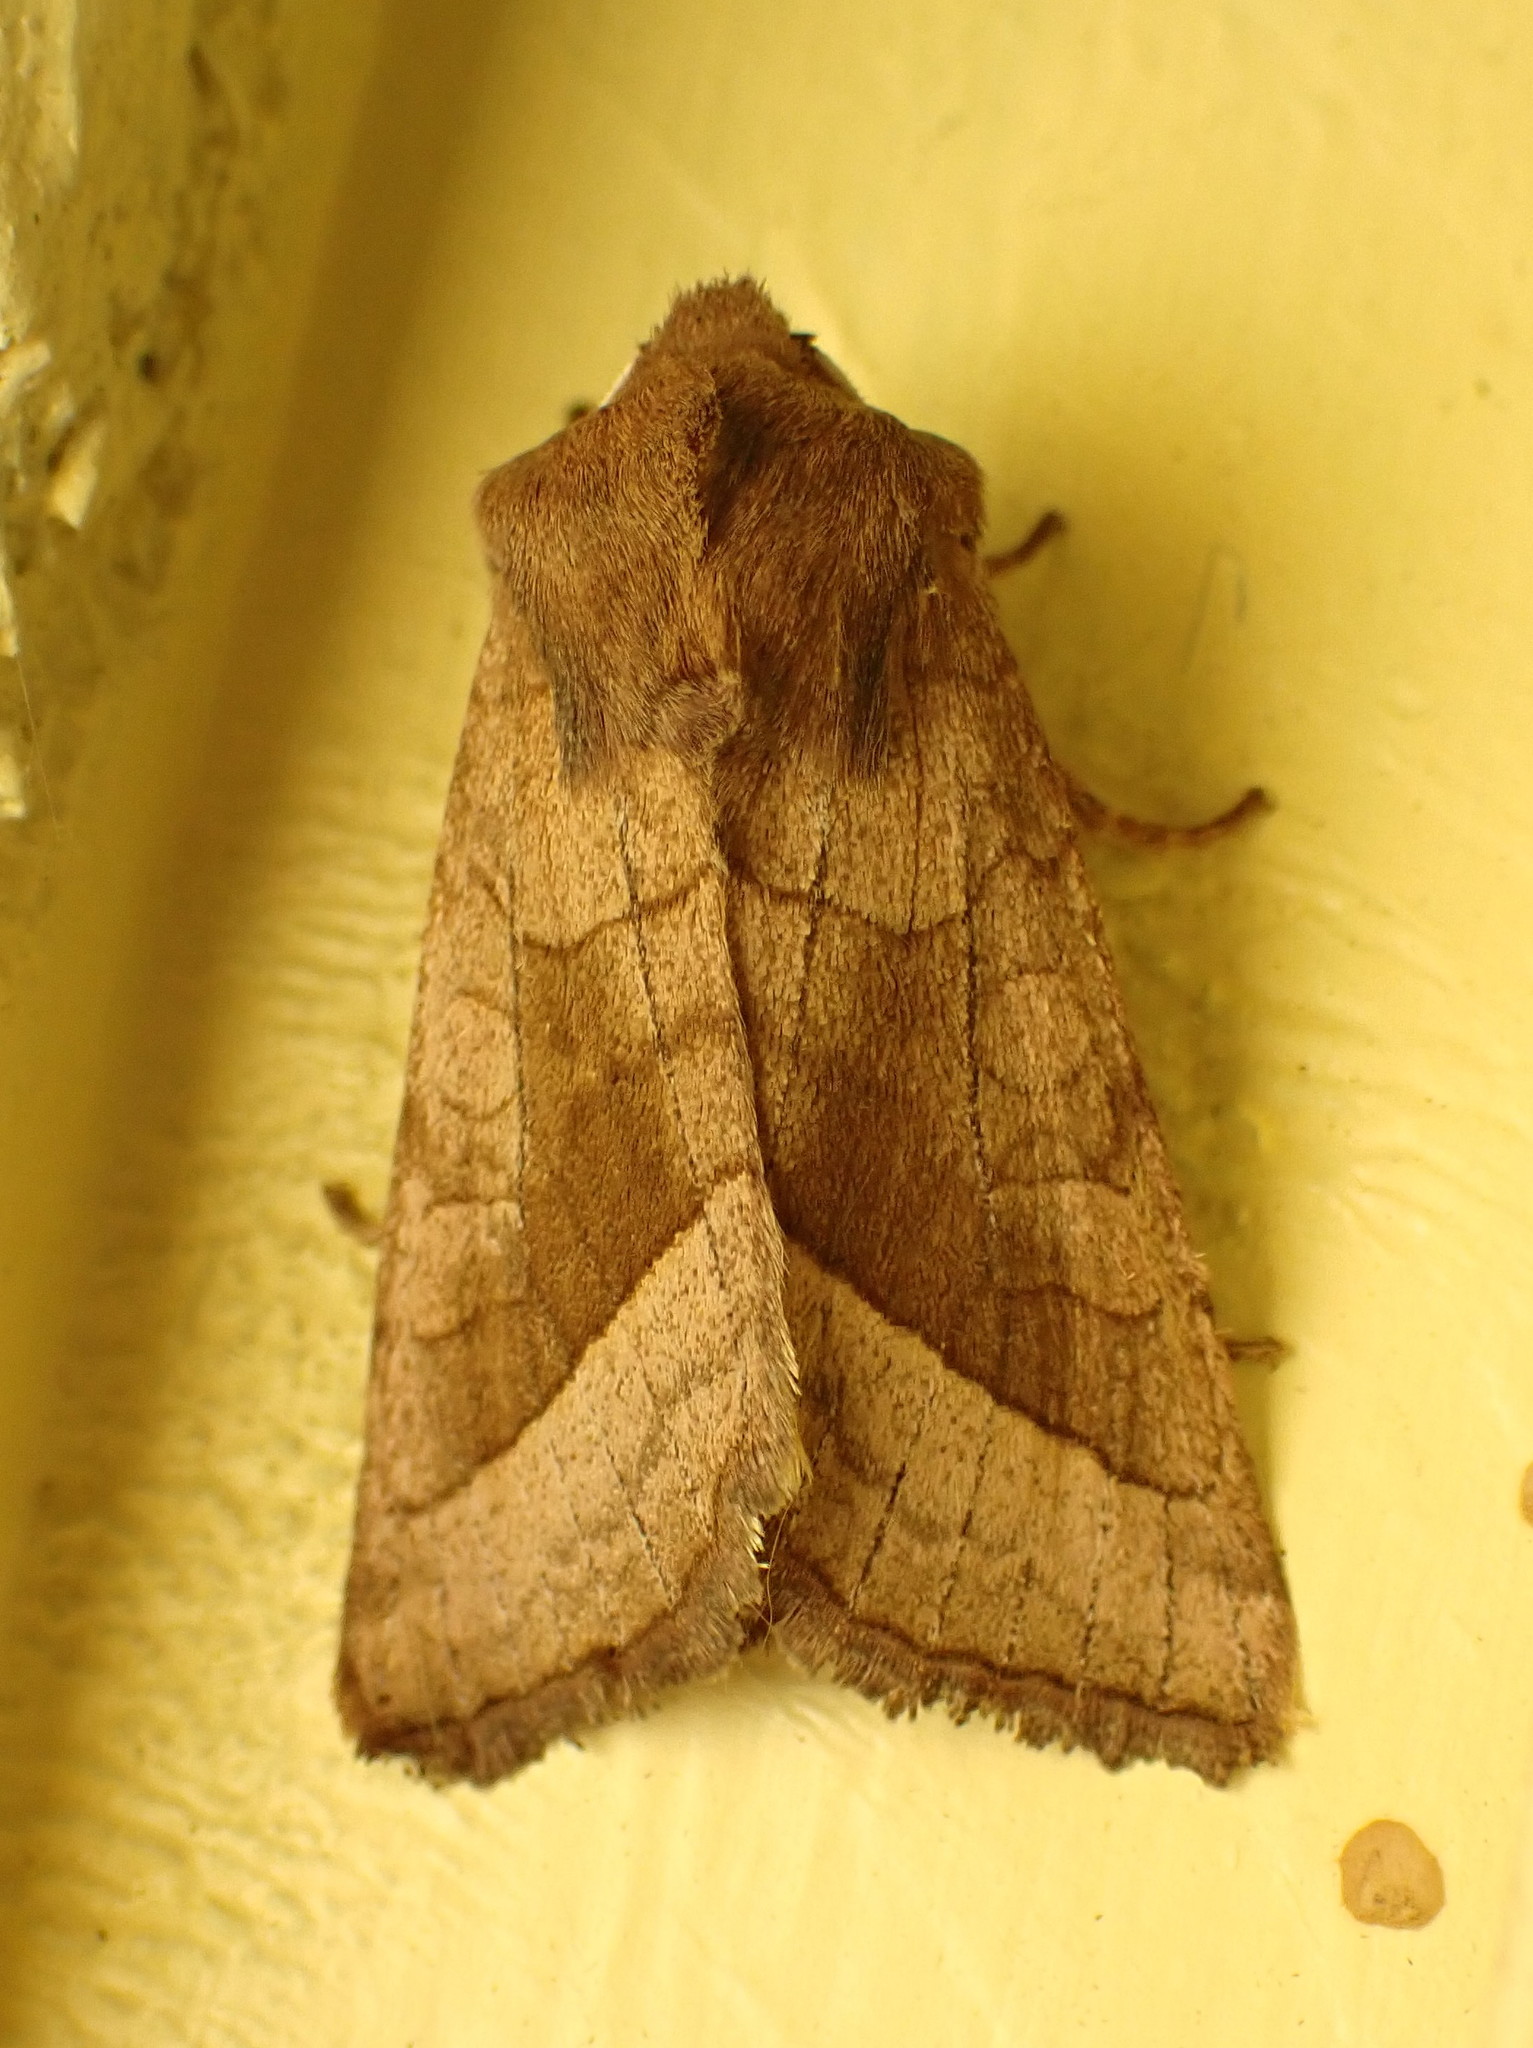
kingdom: Animalia
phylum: Arthropoda
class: Insecta
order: Lepidoptera
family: Noctuidae
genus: Hydraecia
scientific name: Hydraecia micacea
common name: Rosy rustic
